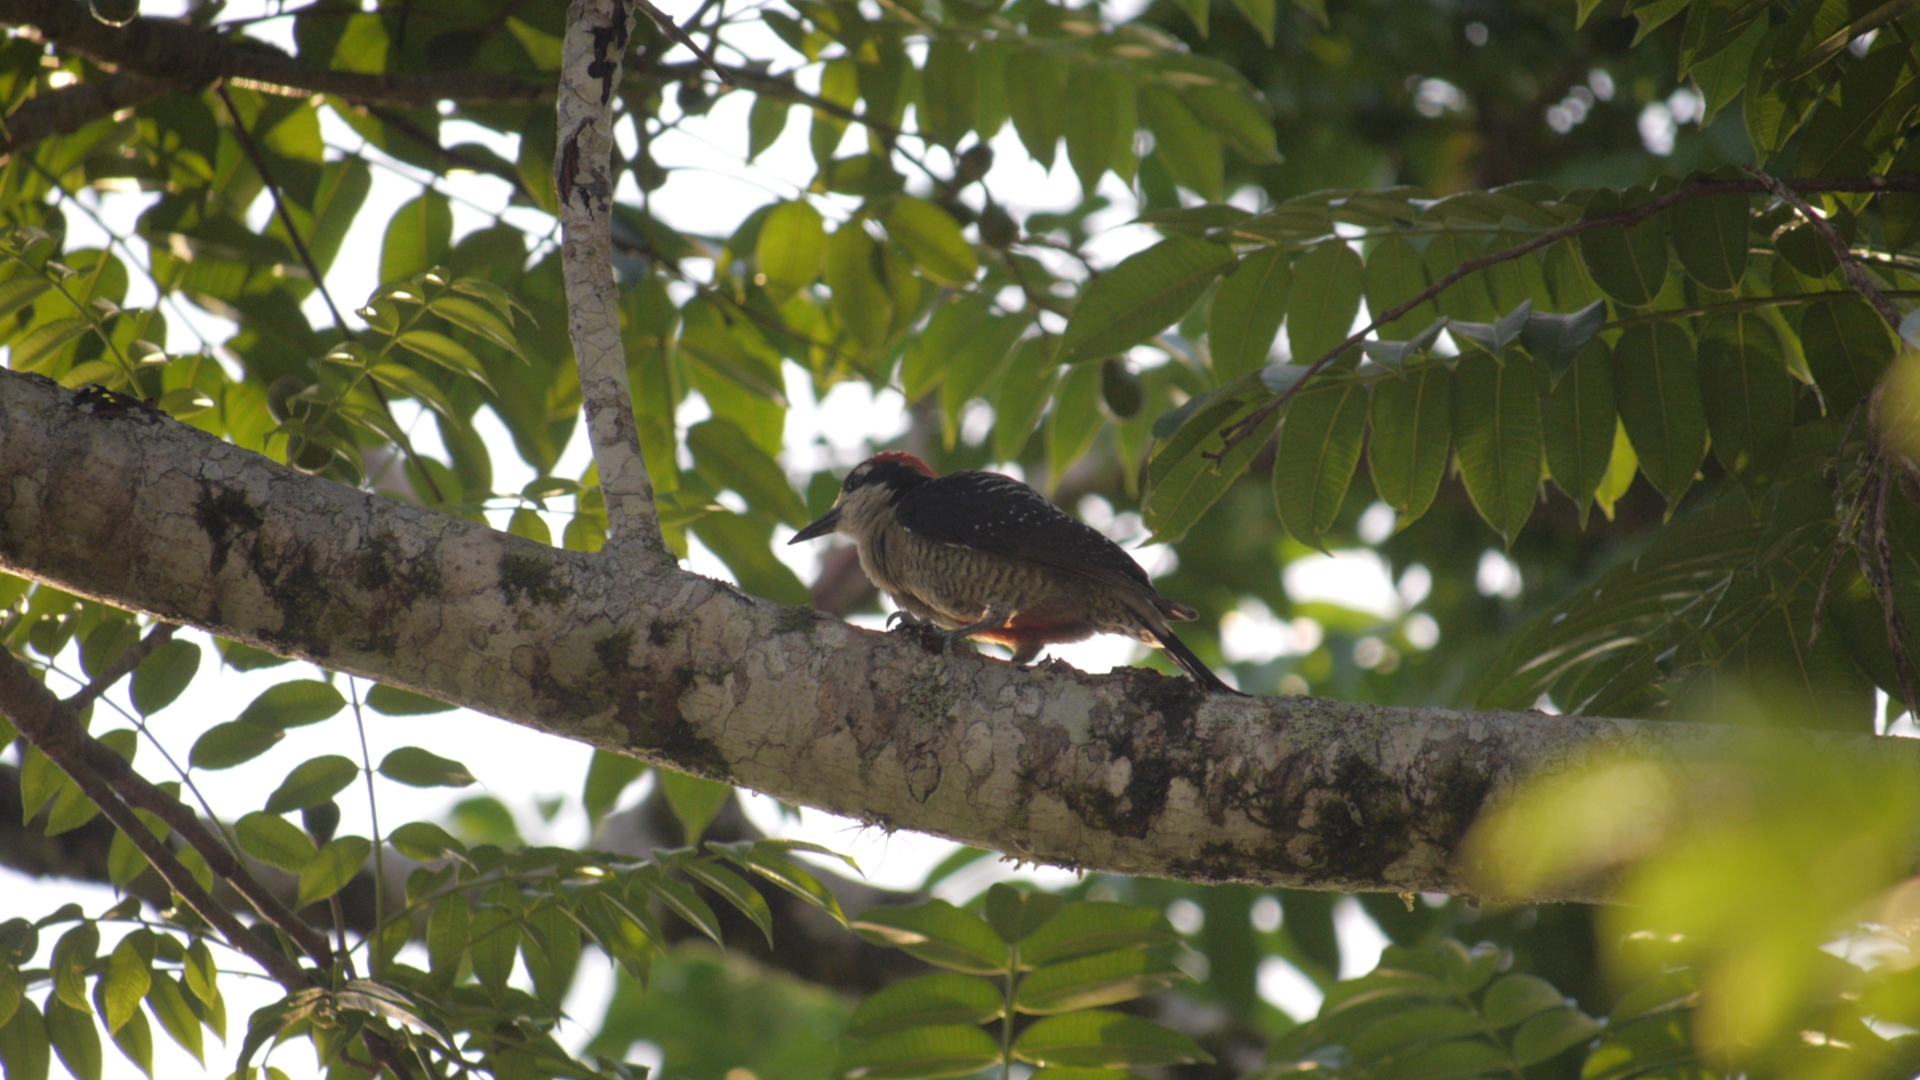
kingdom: Animalia
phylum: Chordata
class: Aves
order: Piciformes
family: Picidae
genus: Melanerpes
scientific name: Melanerpes pucherani
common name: Black-cheeked woodpecker
